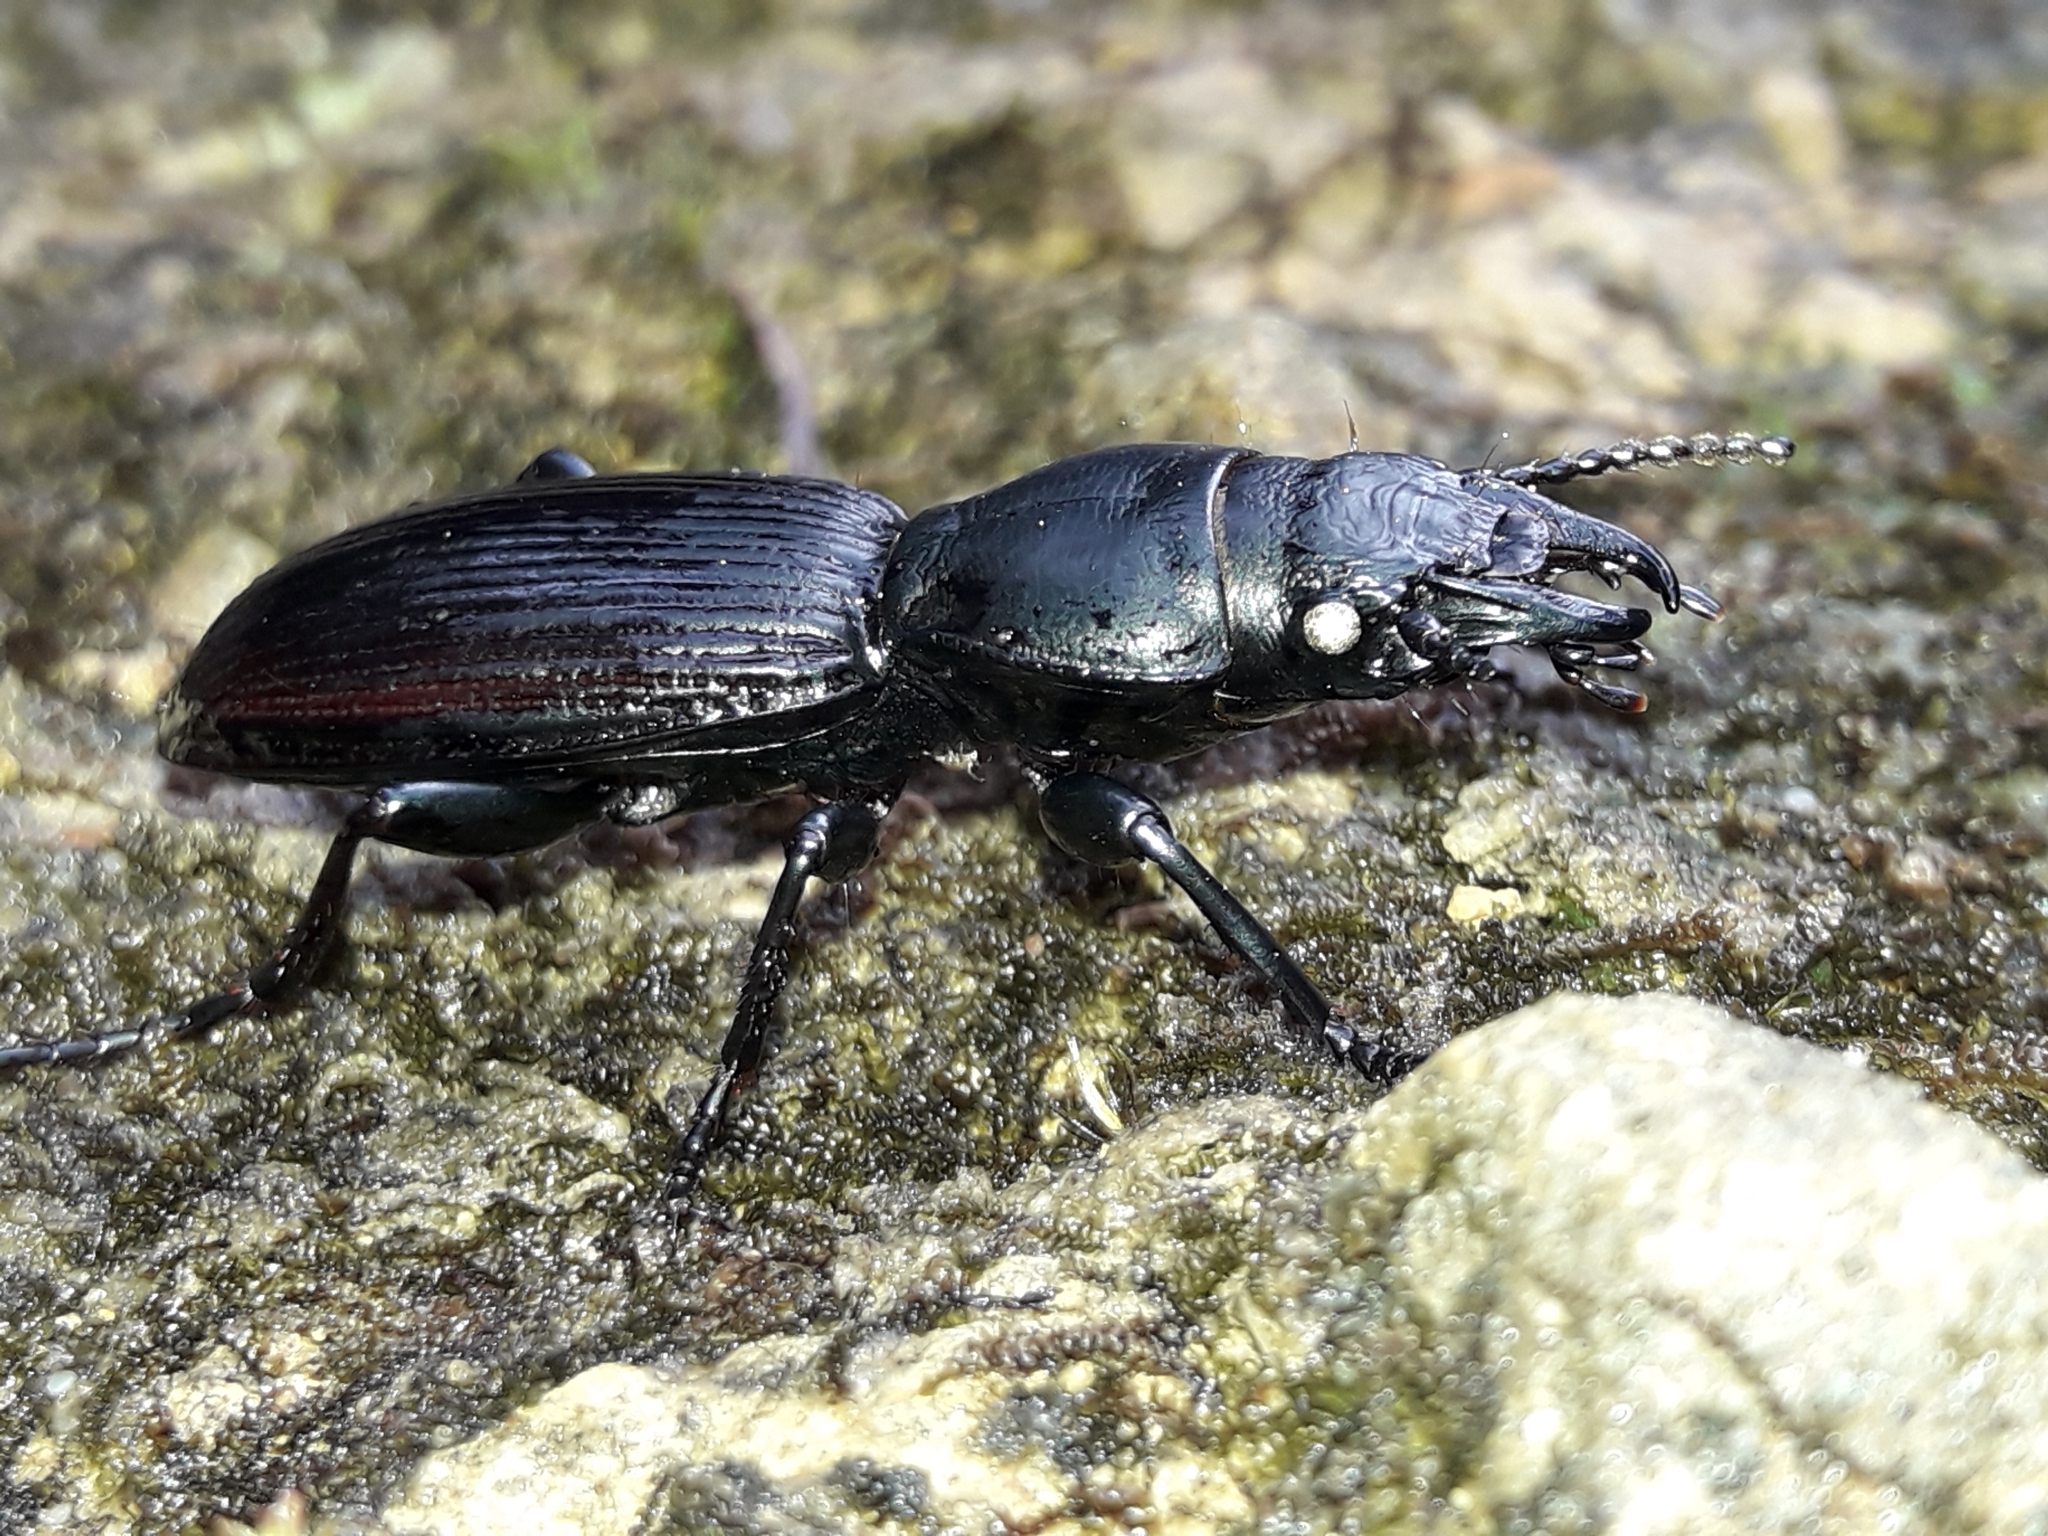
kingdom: Animalia
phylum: Arthropoda
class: Insecta
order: Coleoptera
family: Carabidae
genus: Mecodema
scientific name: Mecodema simplex
